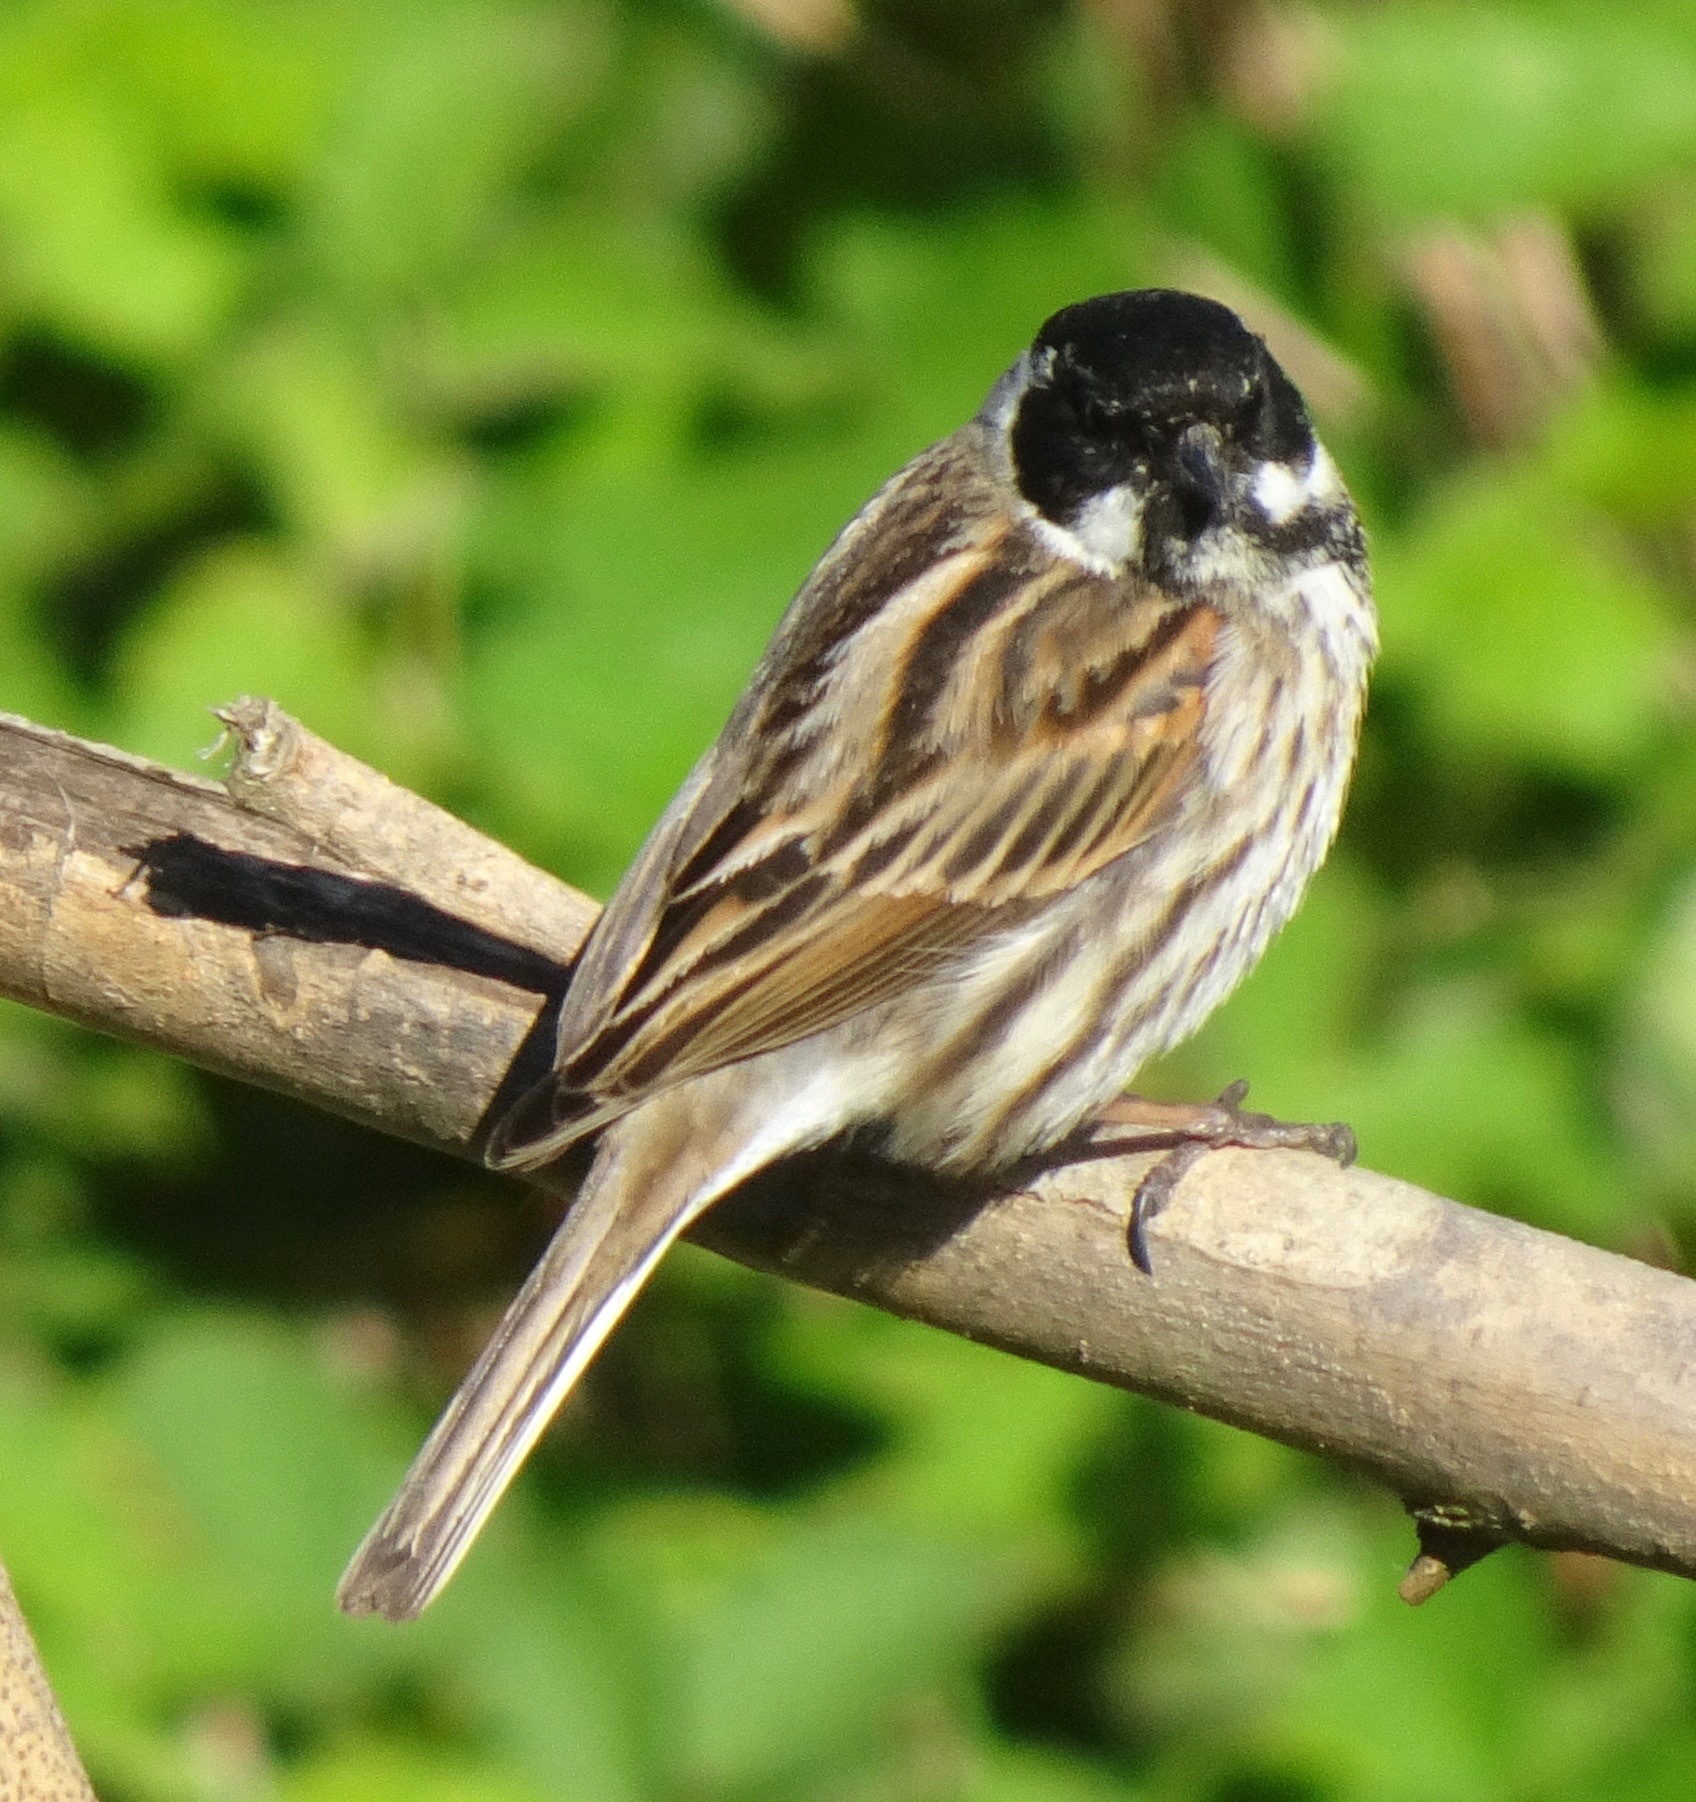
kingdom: Animalia
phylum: Chordata
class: Aves
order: Passeriformes
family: Emberizidae
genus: Emberiza
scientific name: Emberiza schoeniclus
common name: Reed bunting
